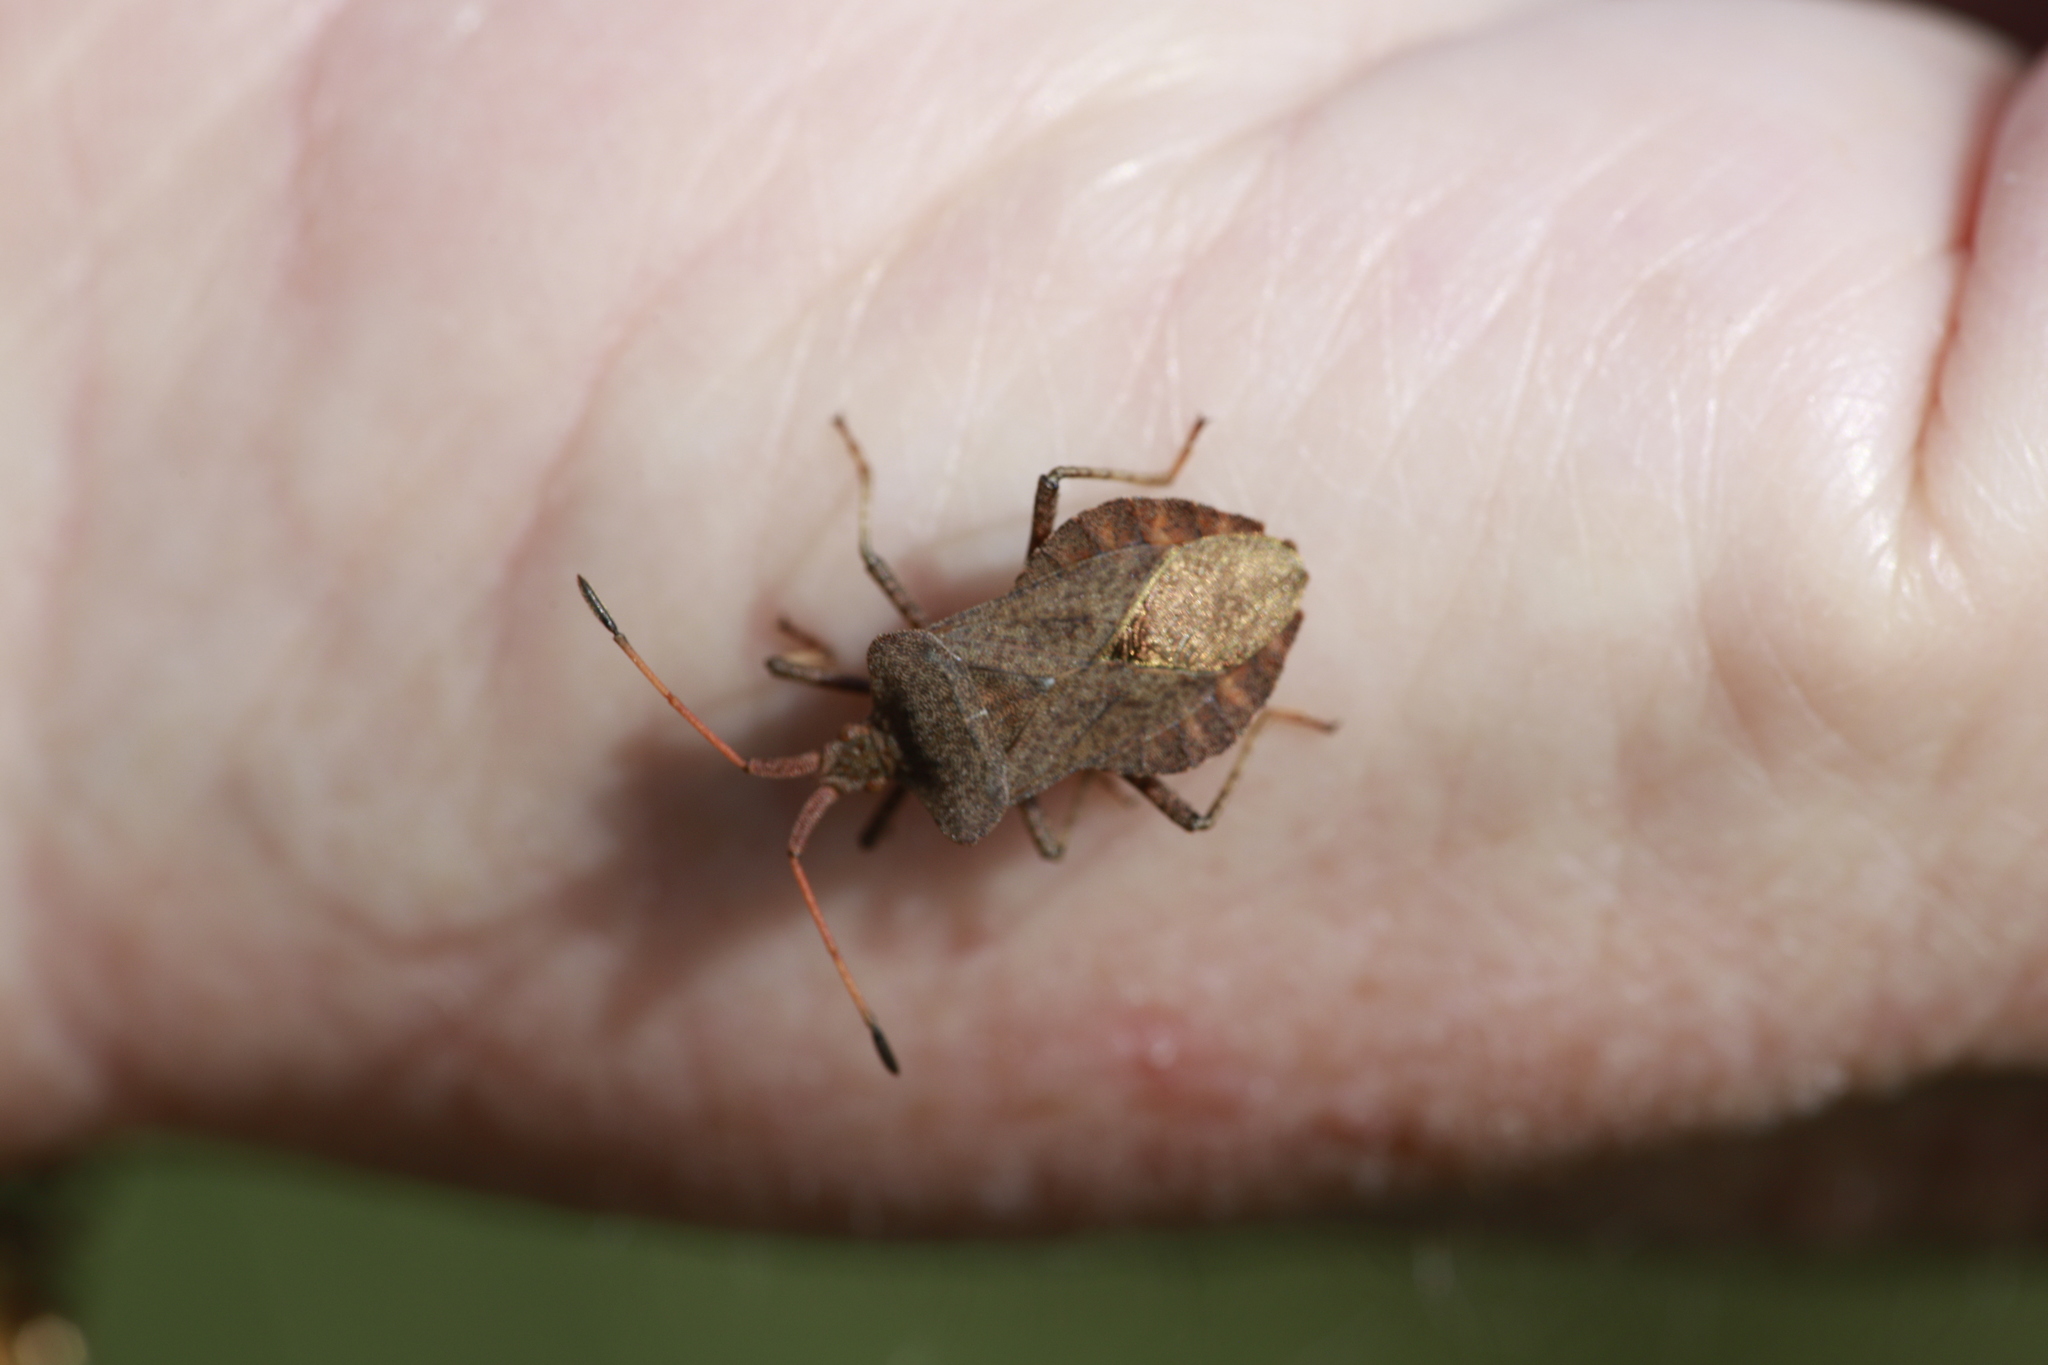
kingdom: Animalia
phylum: Arthropoda
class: Insecta
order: Hemiptera
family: Coreidae
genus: Coreus
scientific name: Coreus marginatus
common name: Dock bug
